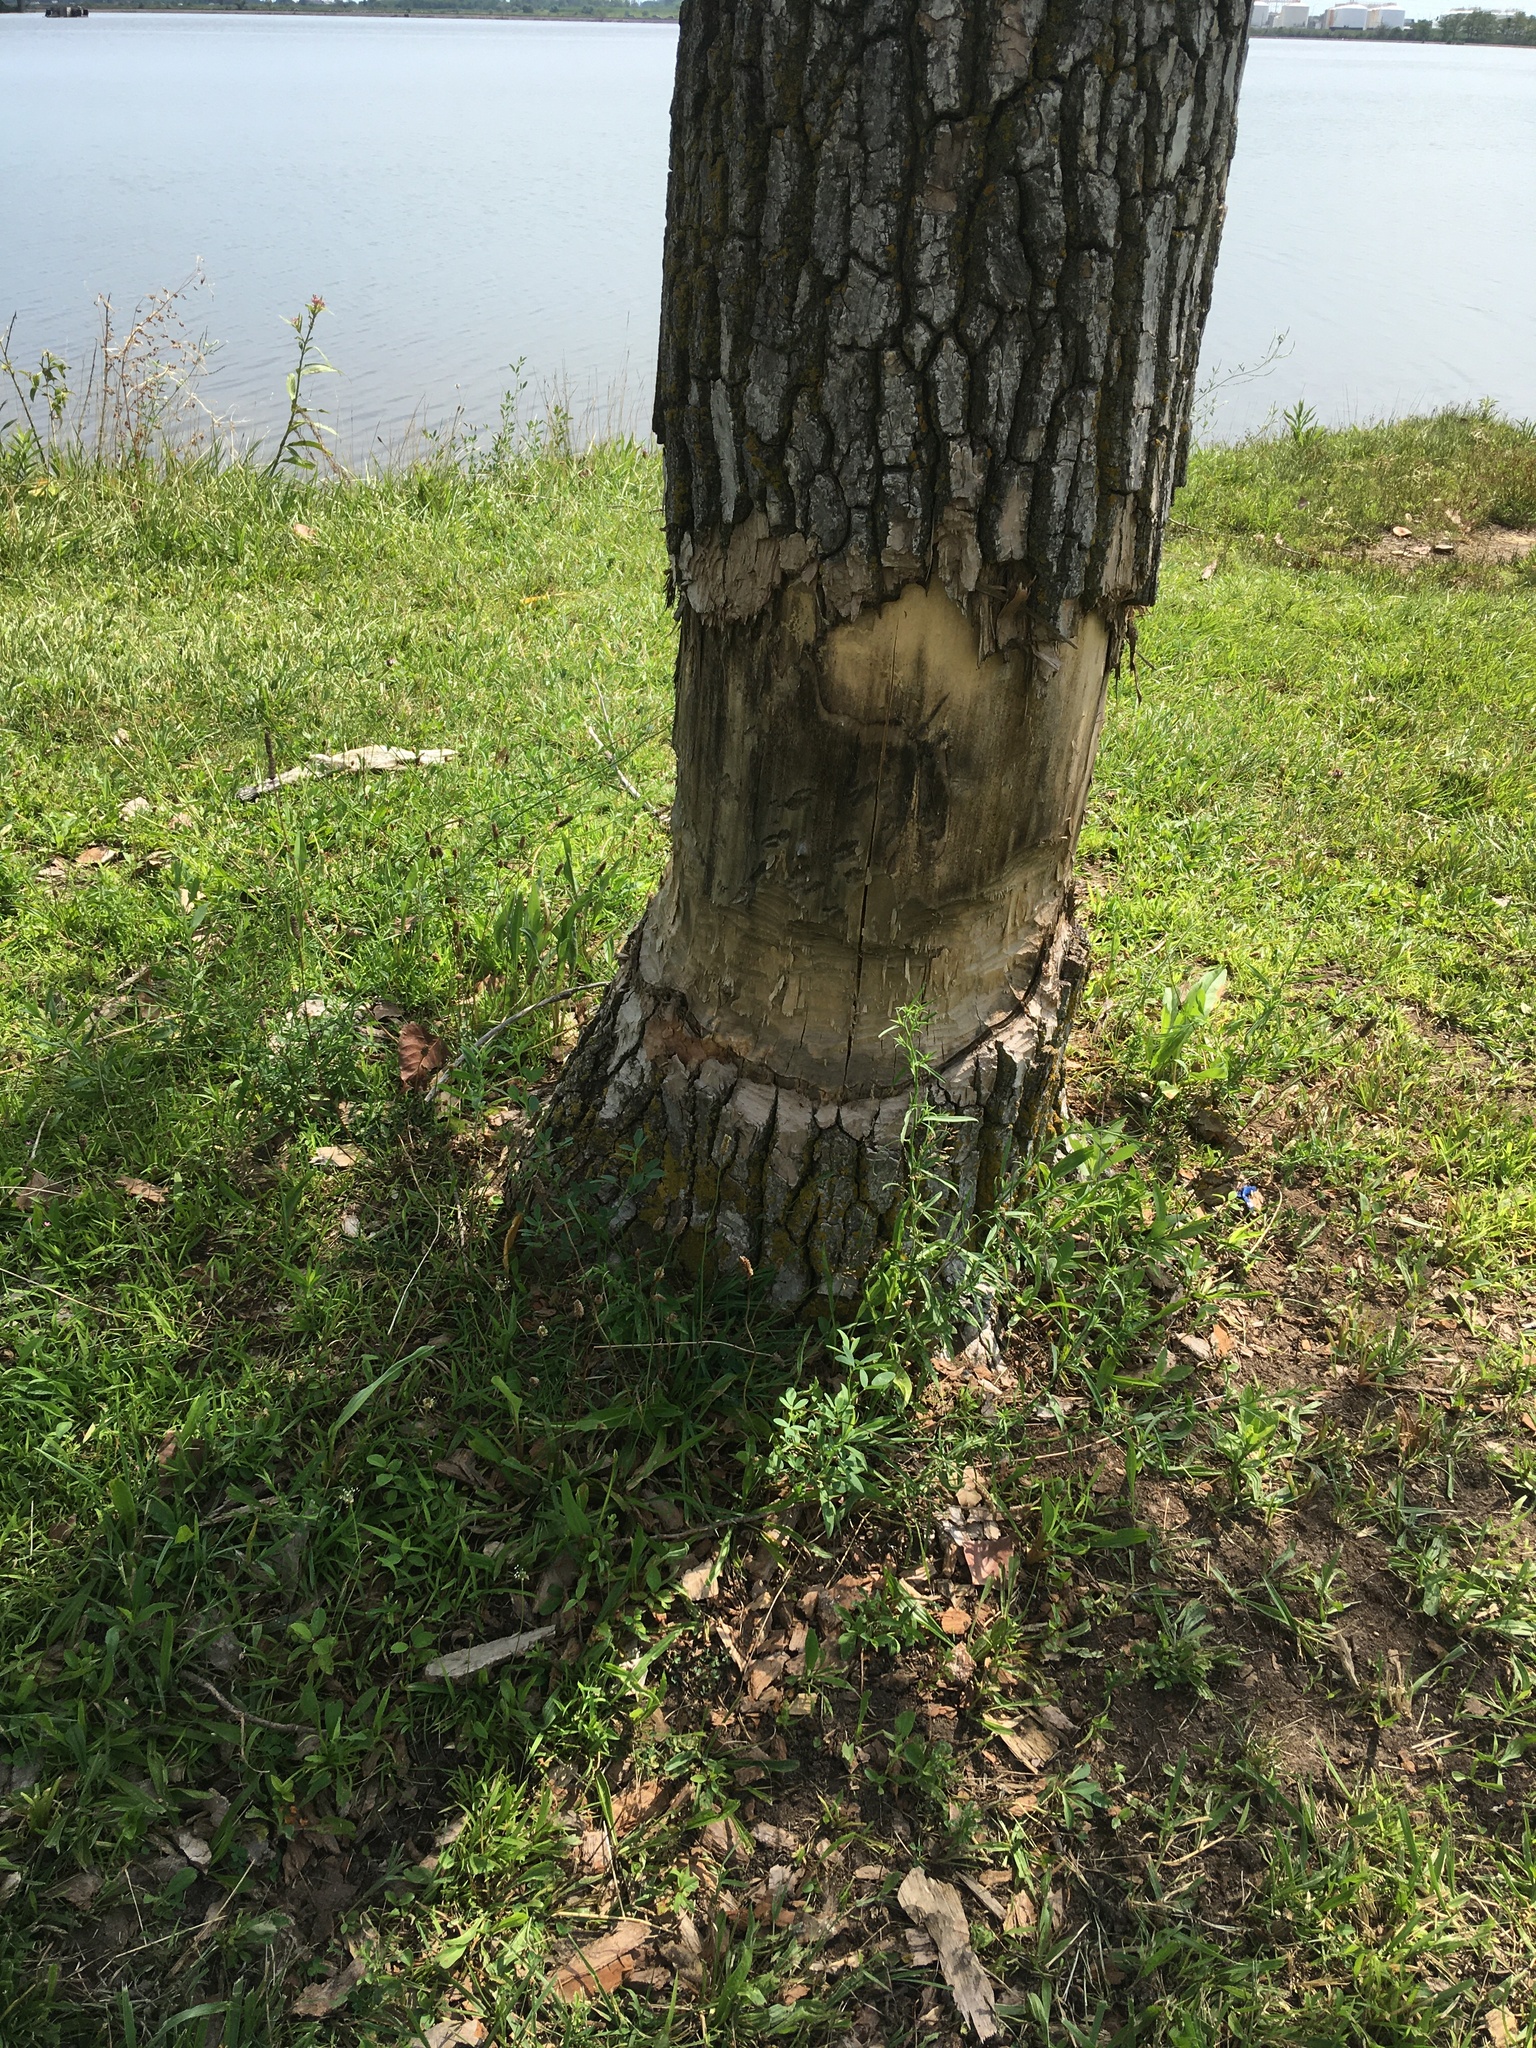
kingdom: Animalia
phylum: Chordata
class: Mammalia
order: Rodentia
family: Castoridae
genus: Castor
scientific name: Castor canadensis
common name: American beaver
